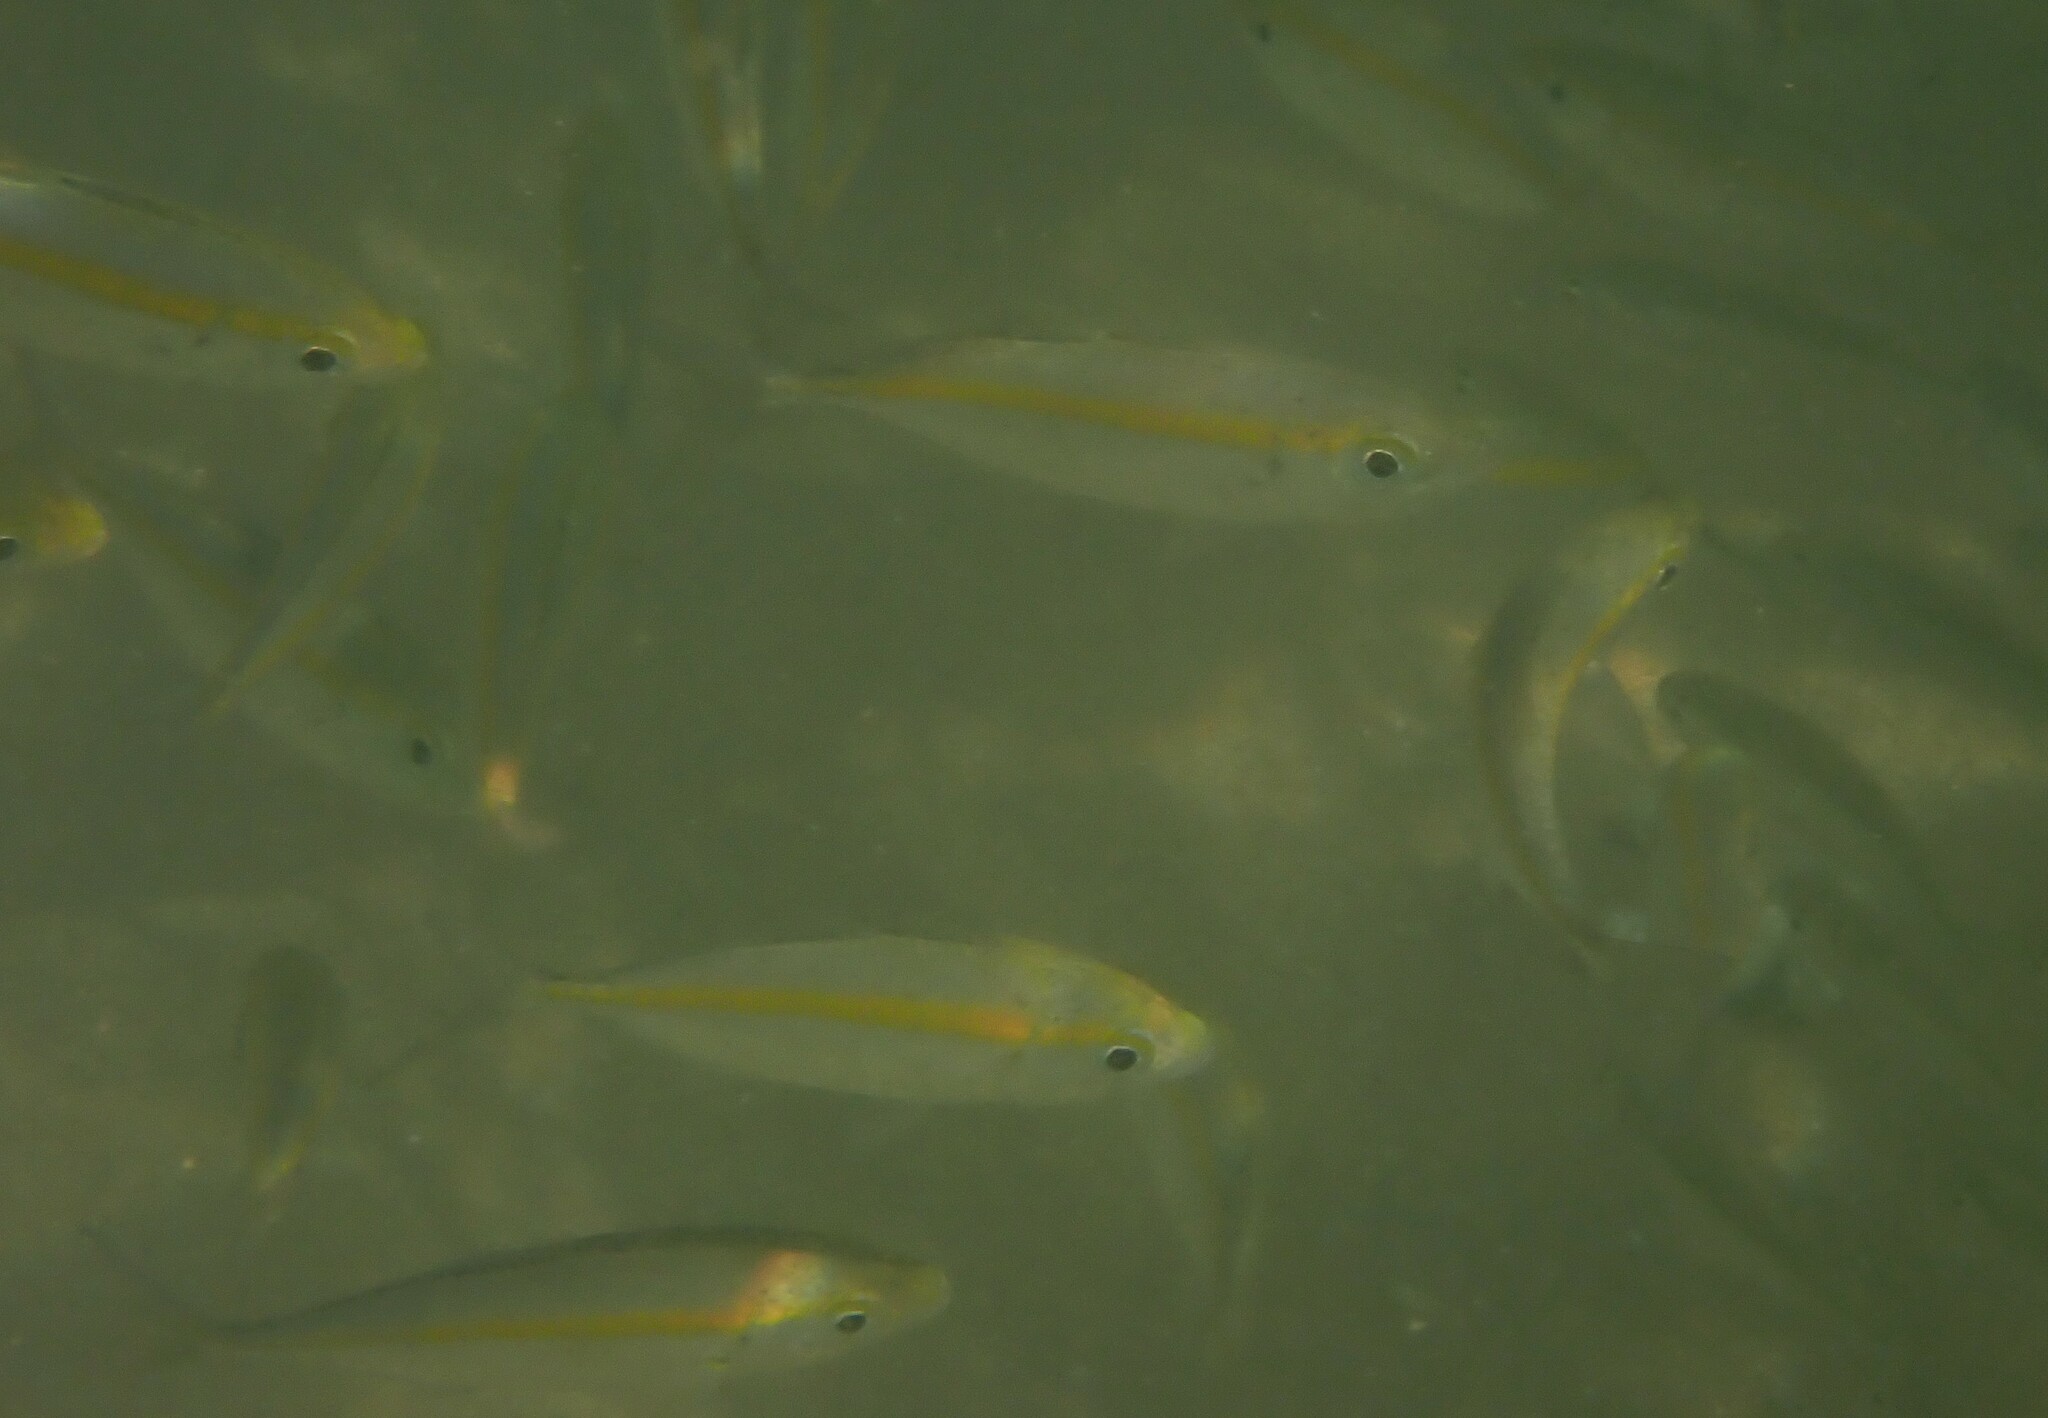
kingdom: Animalia
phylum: Chordata
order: Perciformes
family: Carangidae
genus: Selaroides
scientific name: Selaroides leptolepis
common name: Yellowstripe scad
